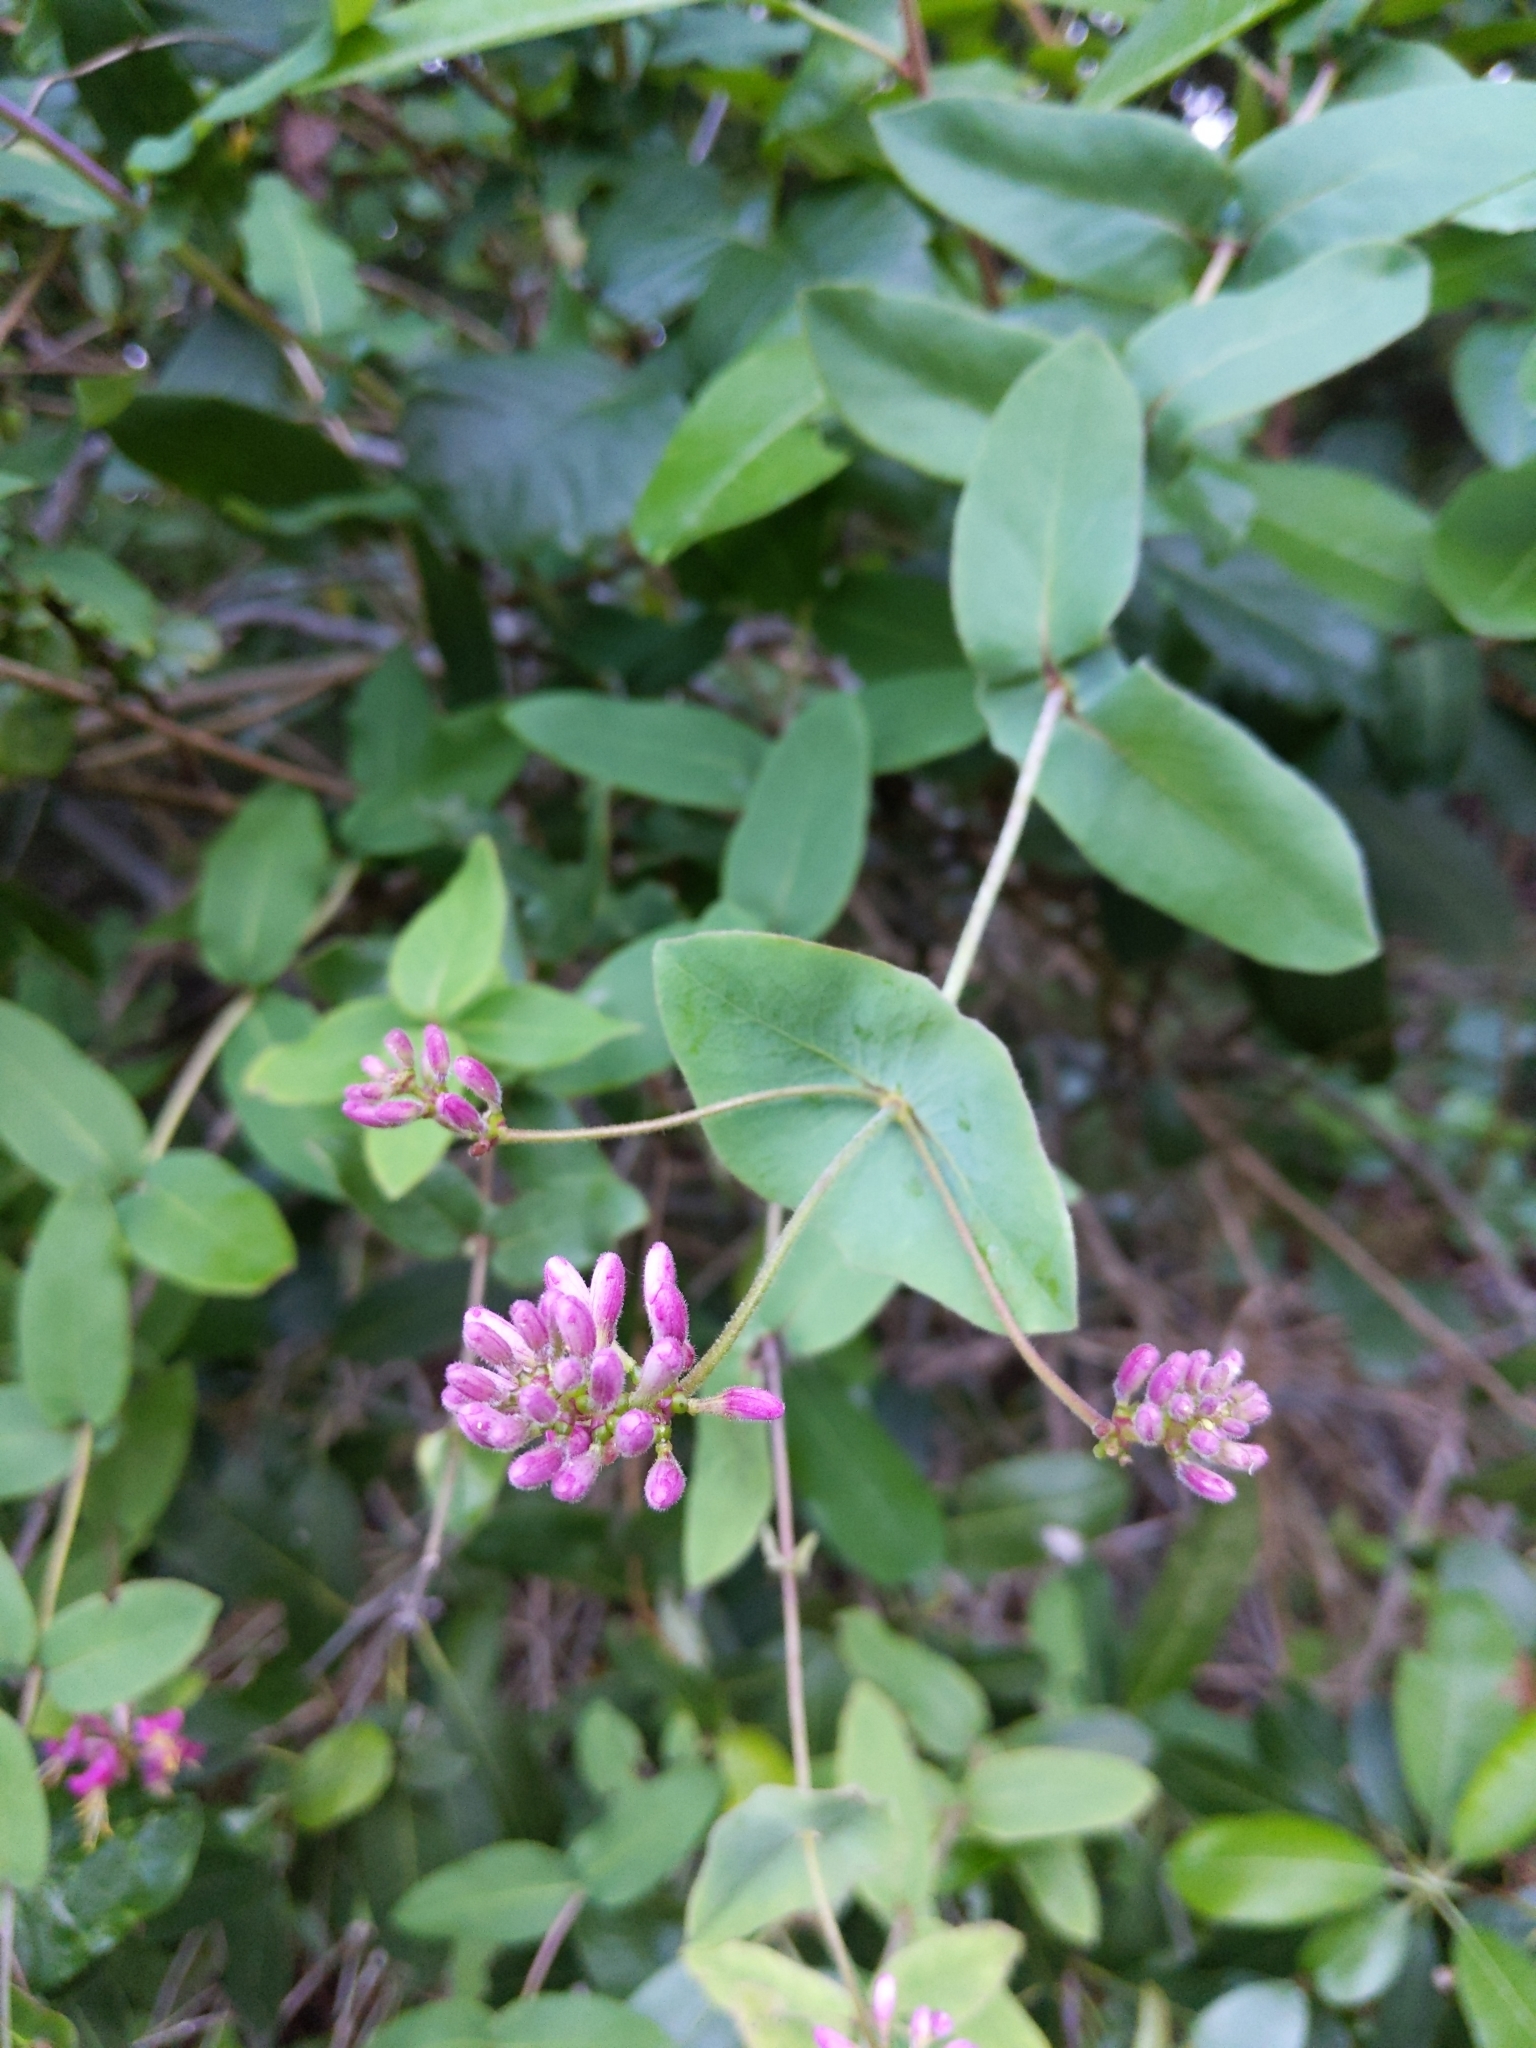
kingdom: Plantae
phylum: Tracheophyta
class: Magnoliopsida
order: Dipsacales
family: Caprifoliaceae
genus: Lonicera
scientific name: Lonicera hispidula
